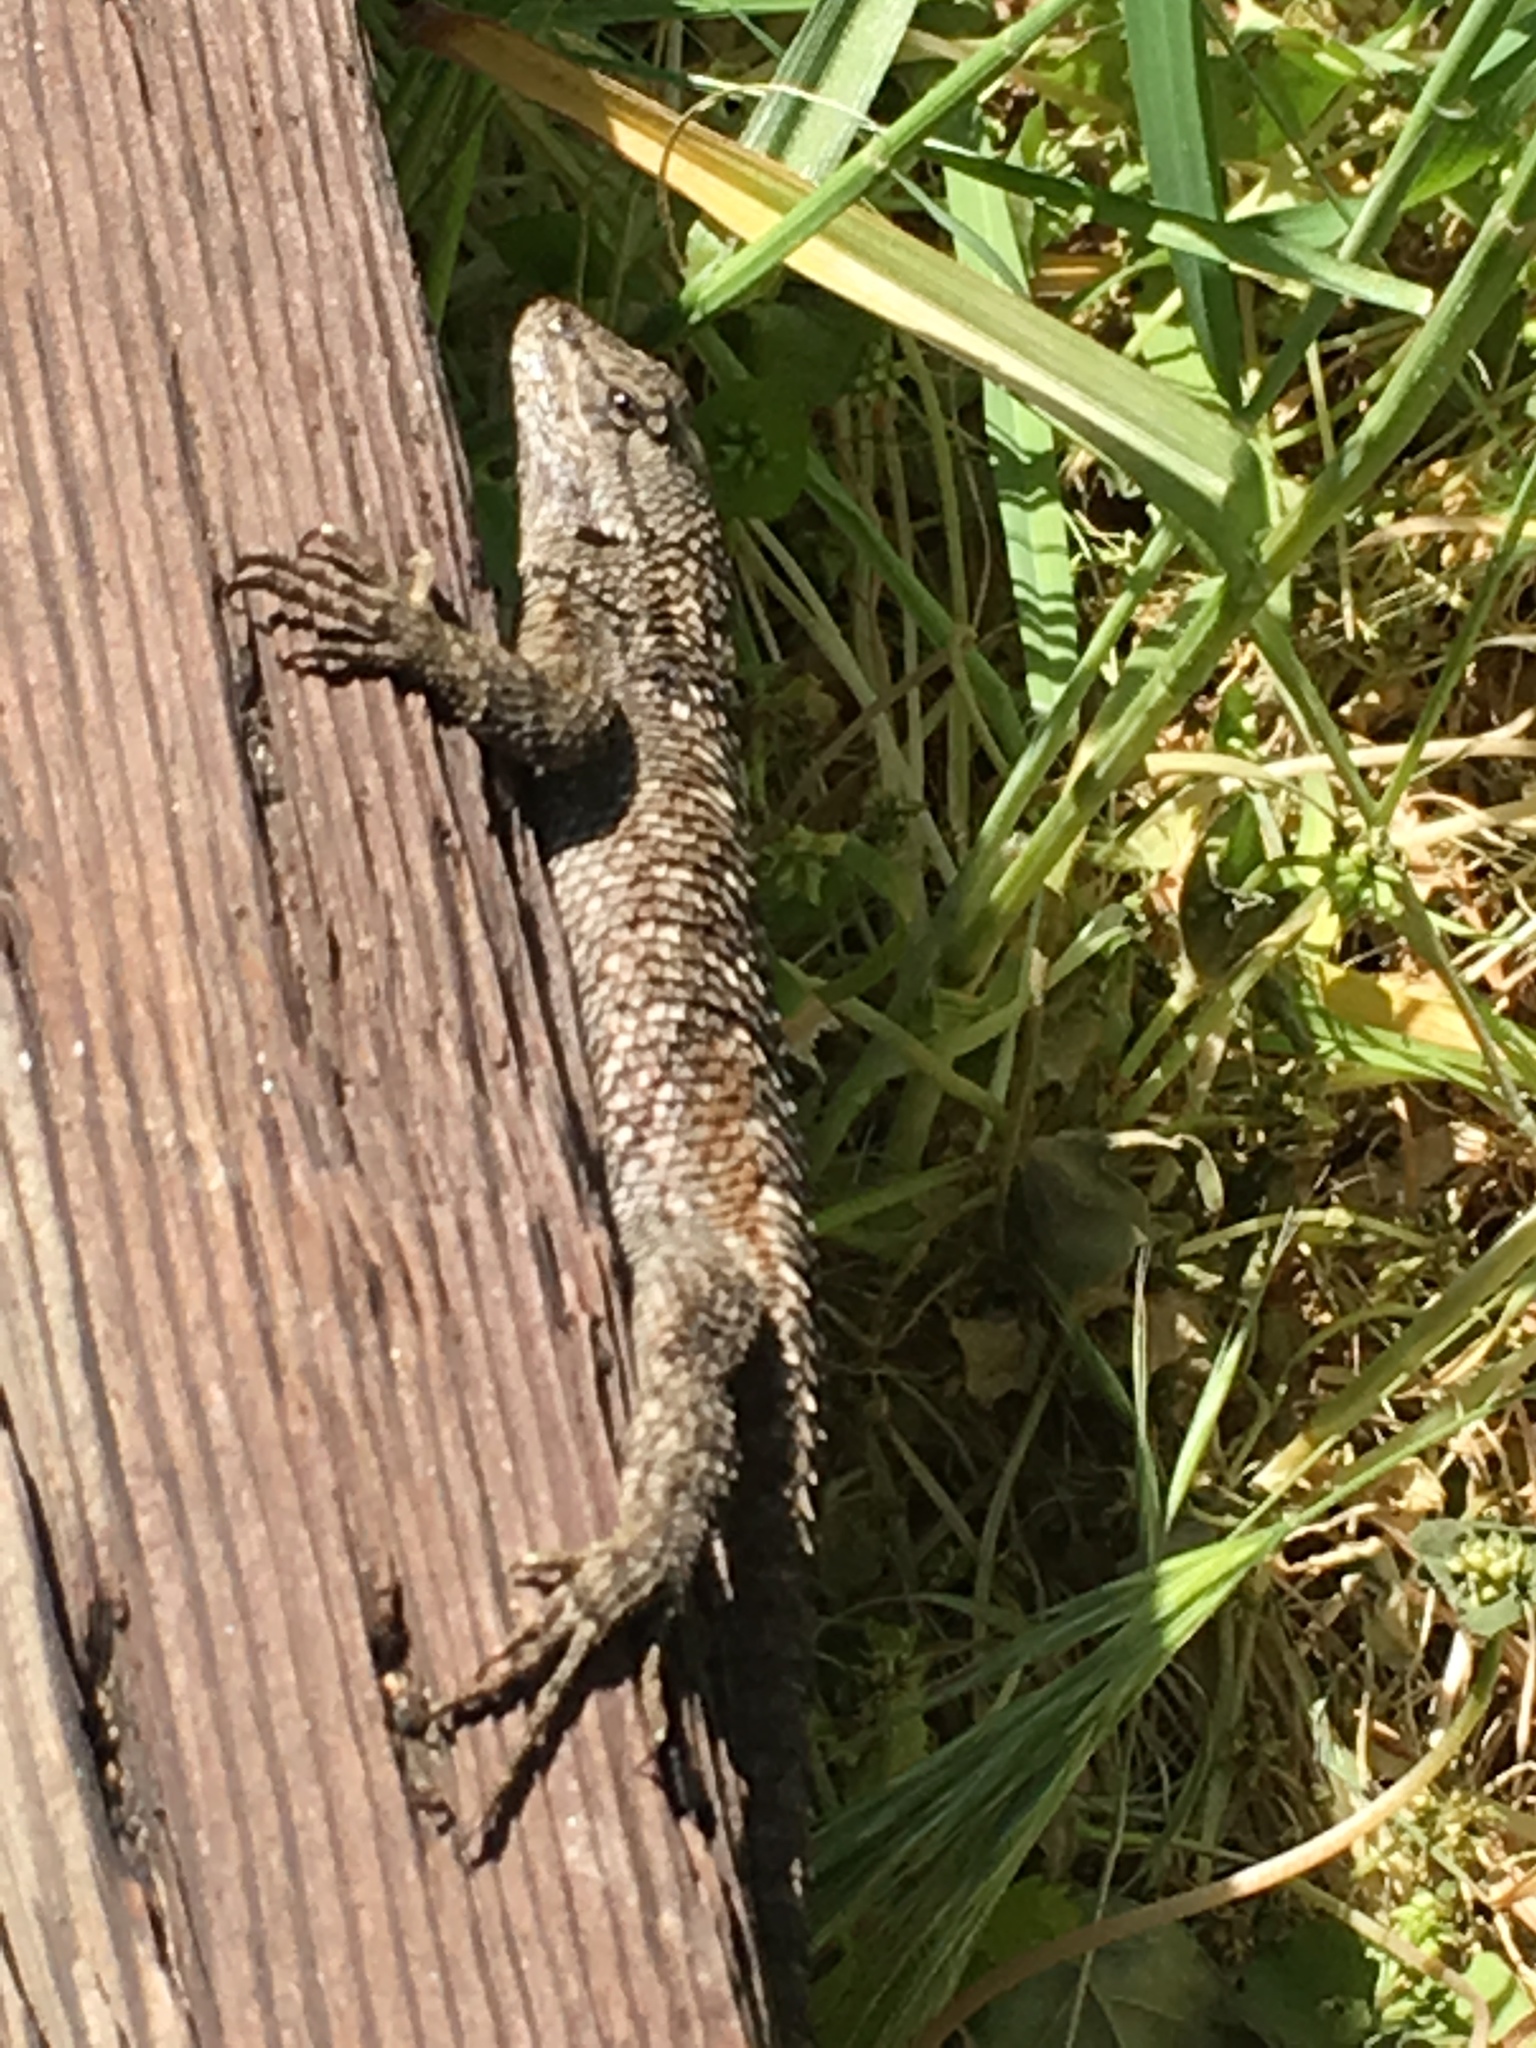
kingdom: Animalia
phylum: Chordata
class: Squamata
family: Phrynosomatidae
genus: Sceloporus
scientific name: Sceloporus occidentalis
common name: Western fence lizard
